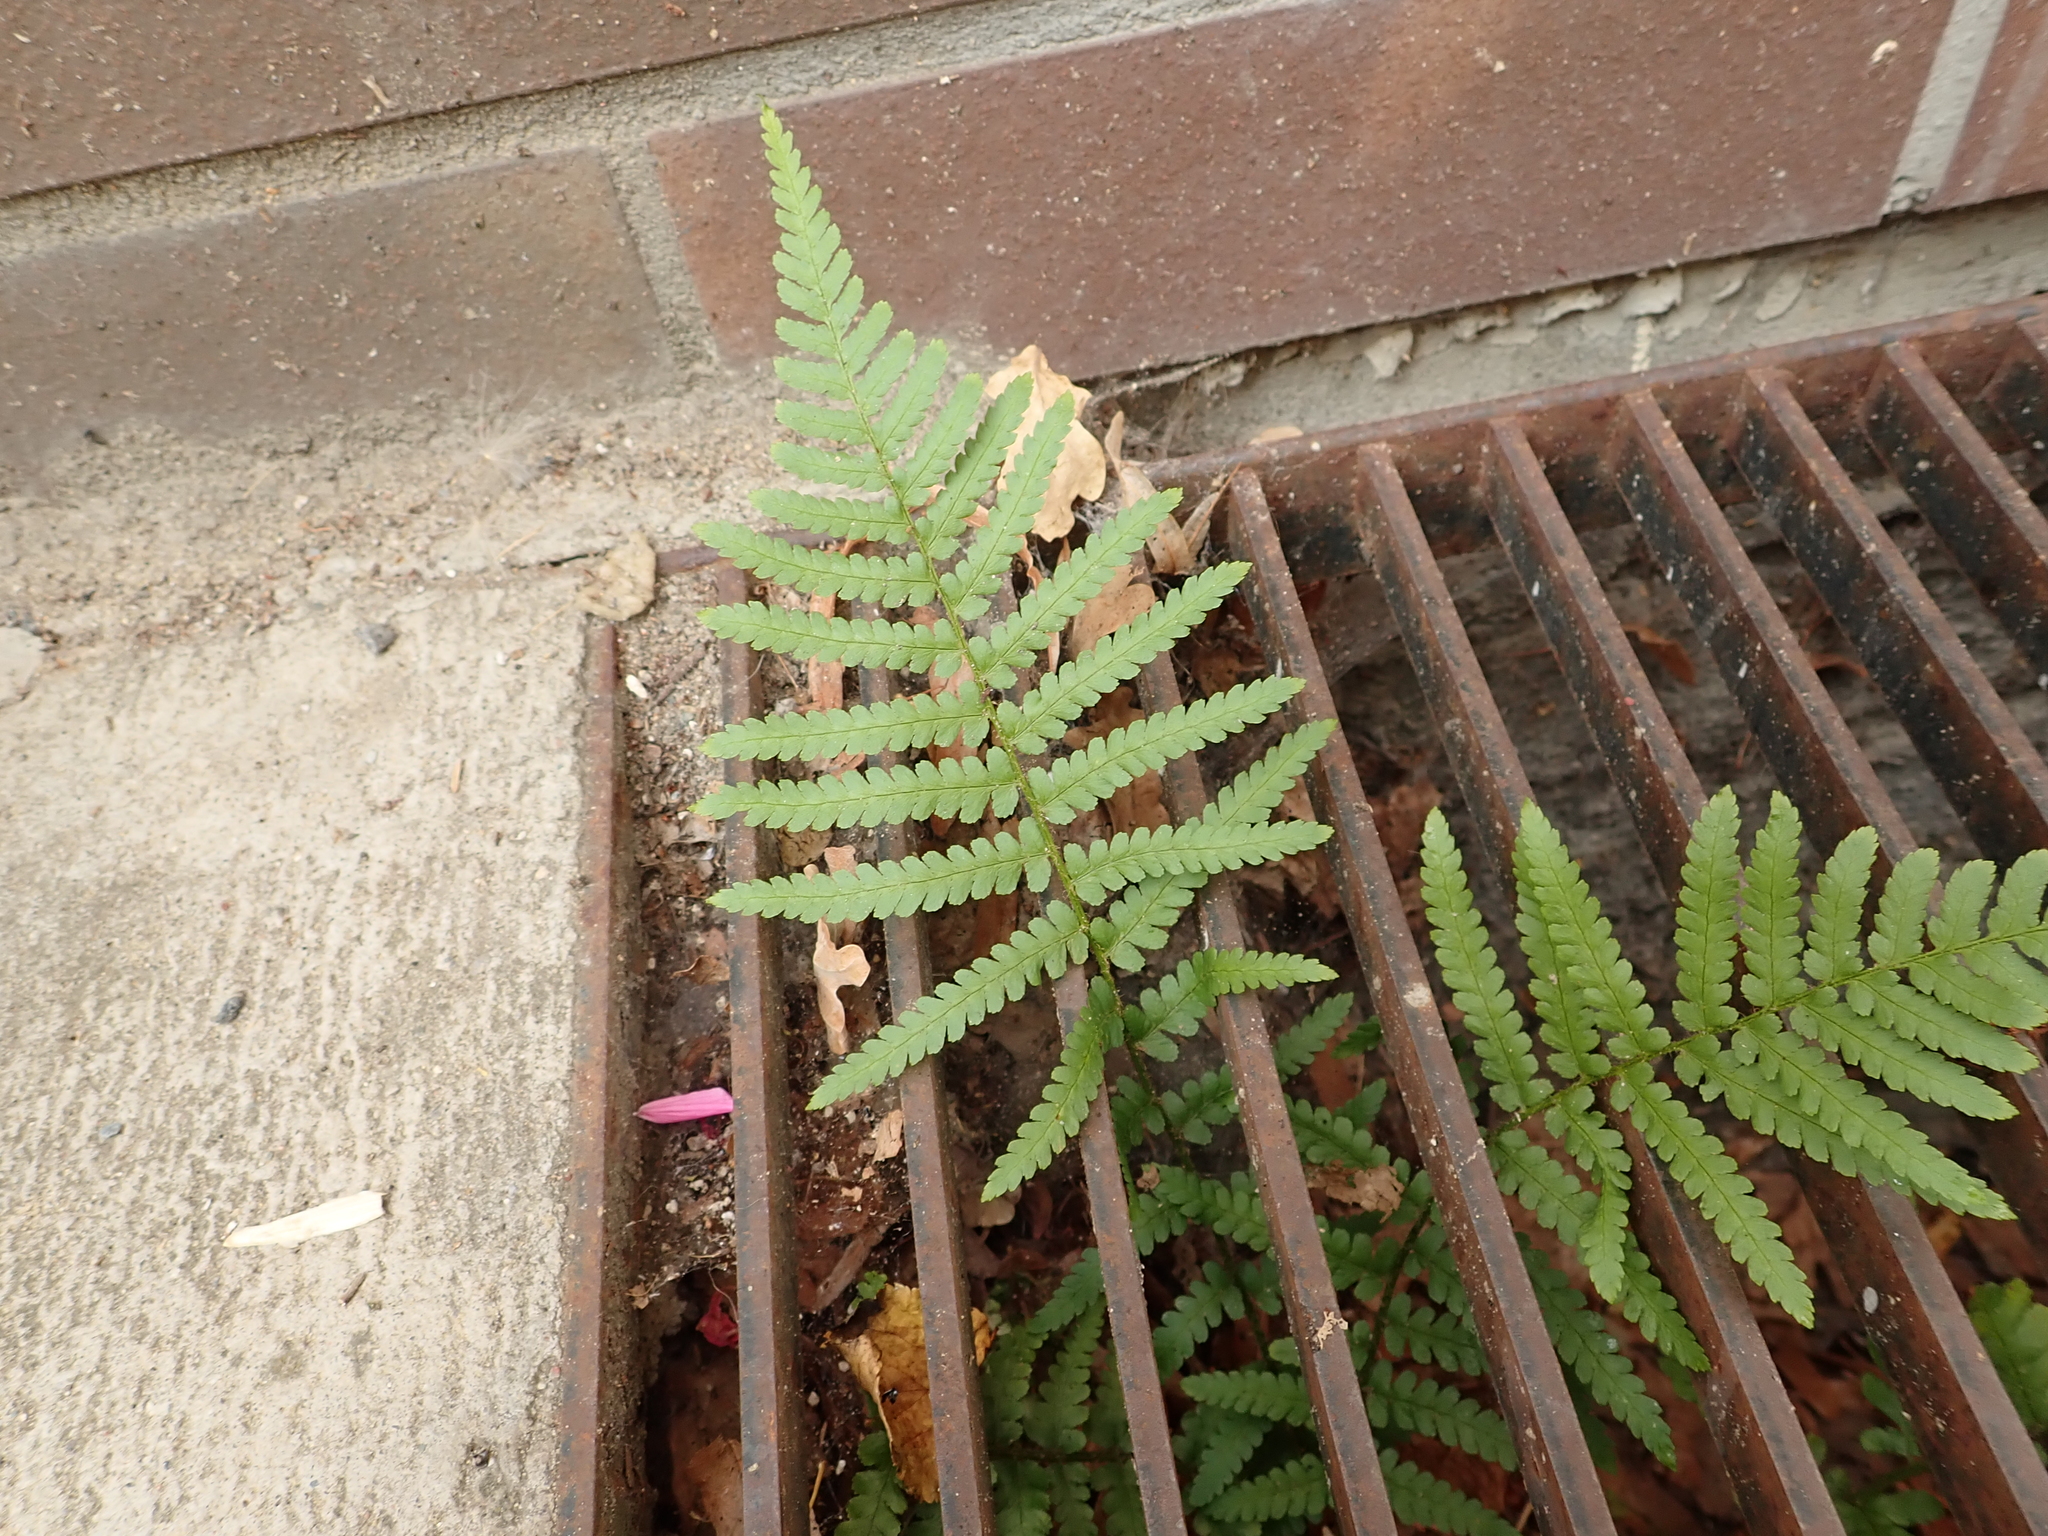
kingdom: Plantae
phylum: Tracheophyta
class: Polypodiopsida
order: Polypodiales
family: Dryopteridaceae
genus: Dryopteris
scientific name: Dryopteris filix-mas
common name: Male fern
